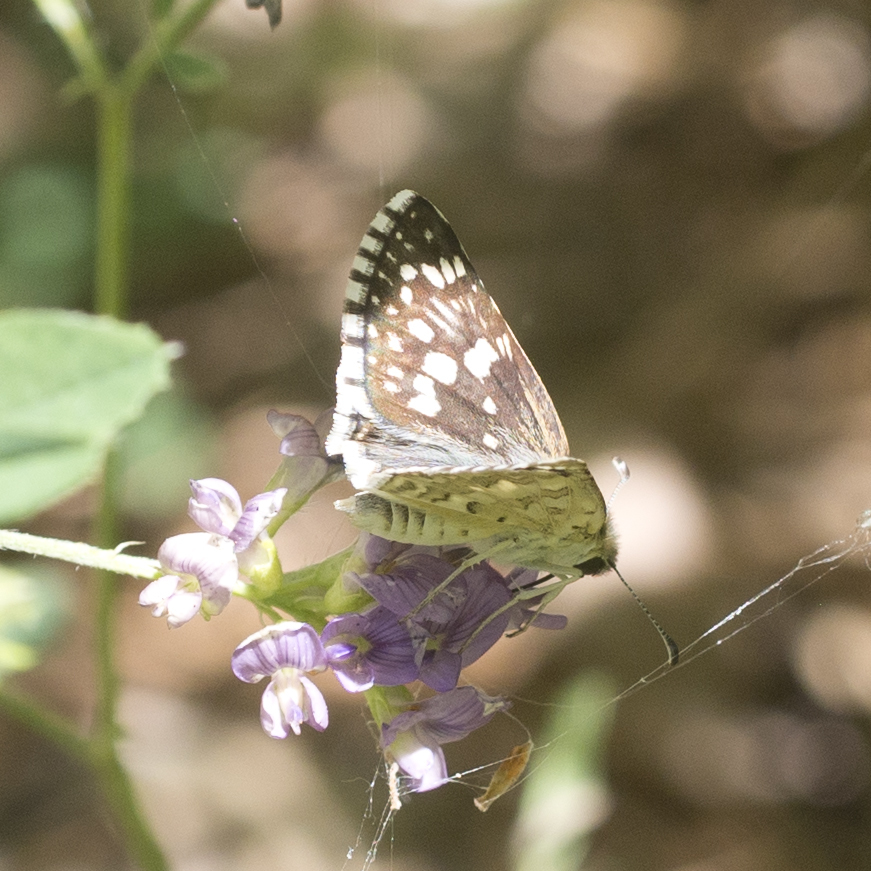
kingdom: Animalia
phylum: Arthropoda
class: Insecta
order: Lepidoptera
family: Hesperiidae
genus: Burnsius
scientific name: Burnsius communis
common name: Common checkered-skipper
